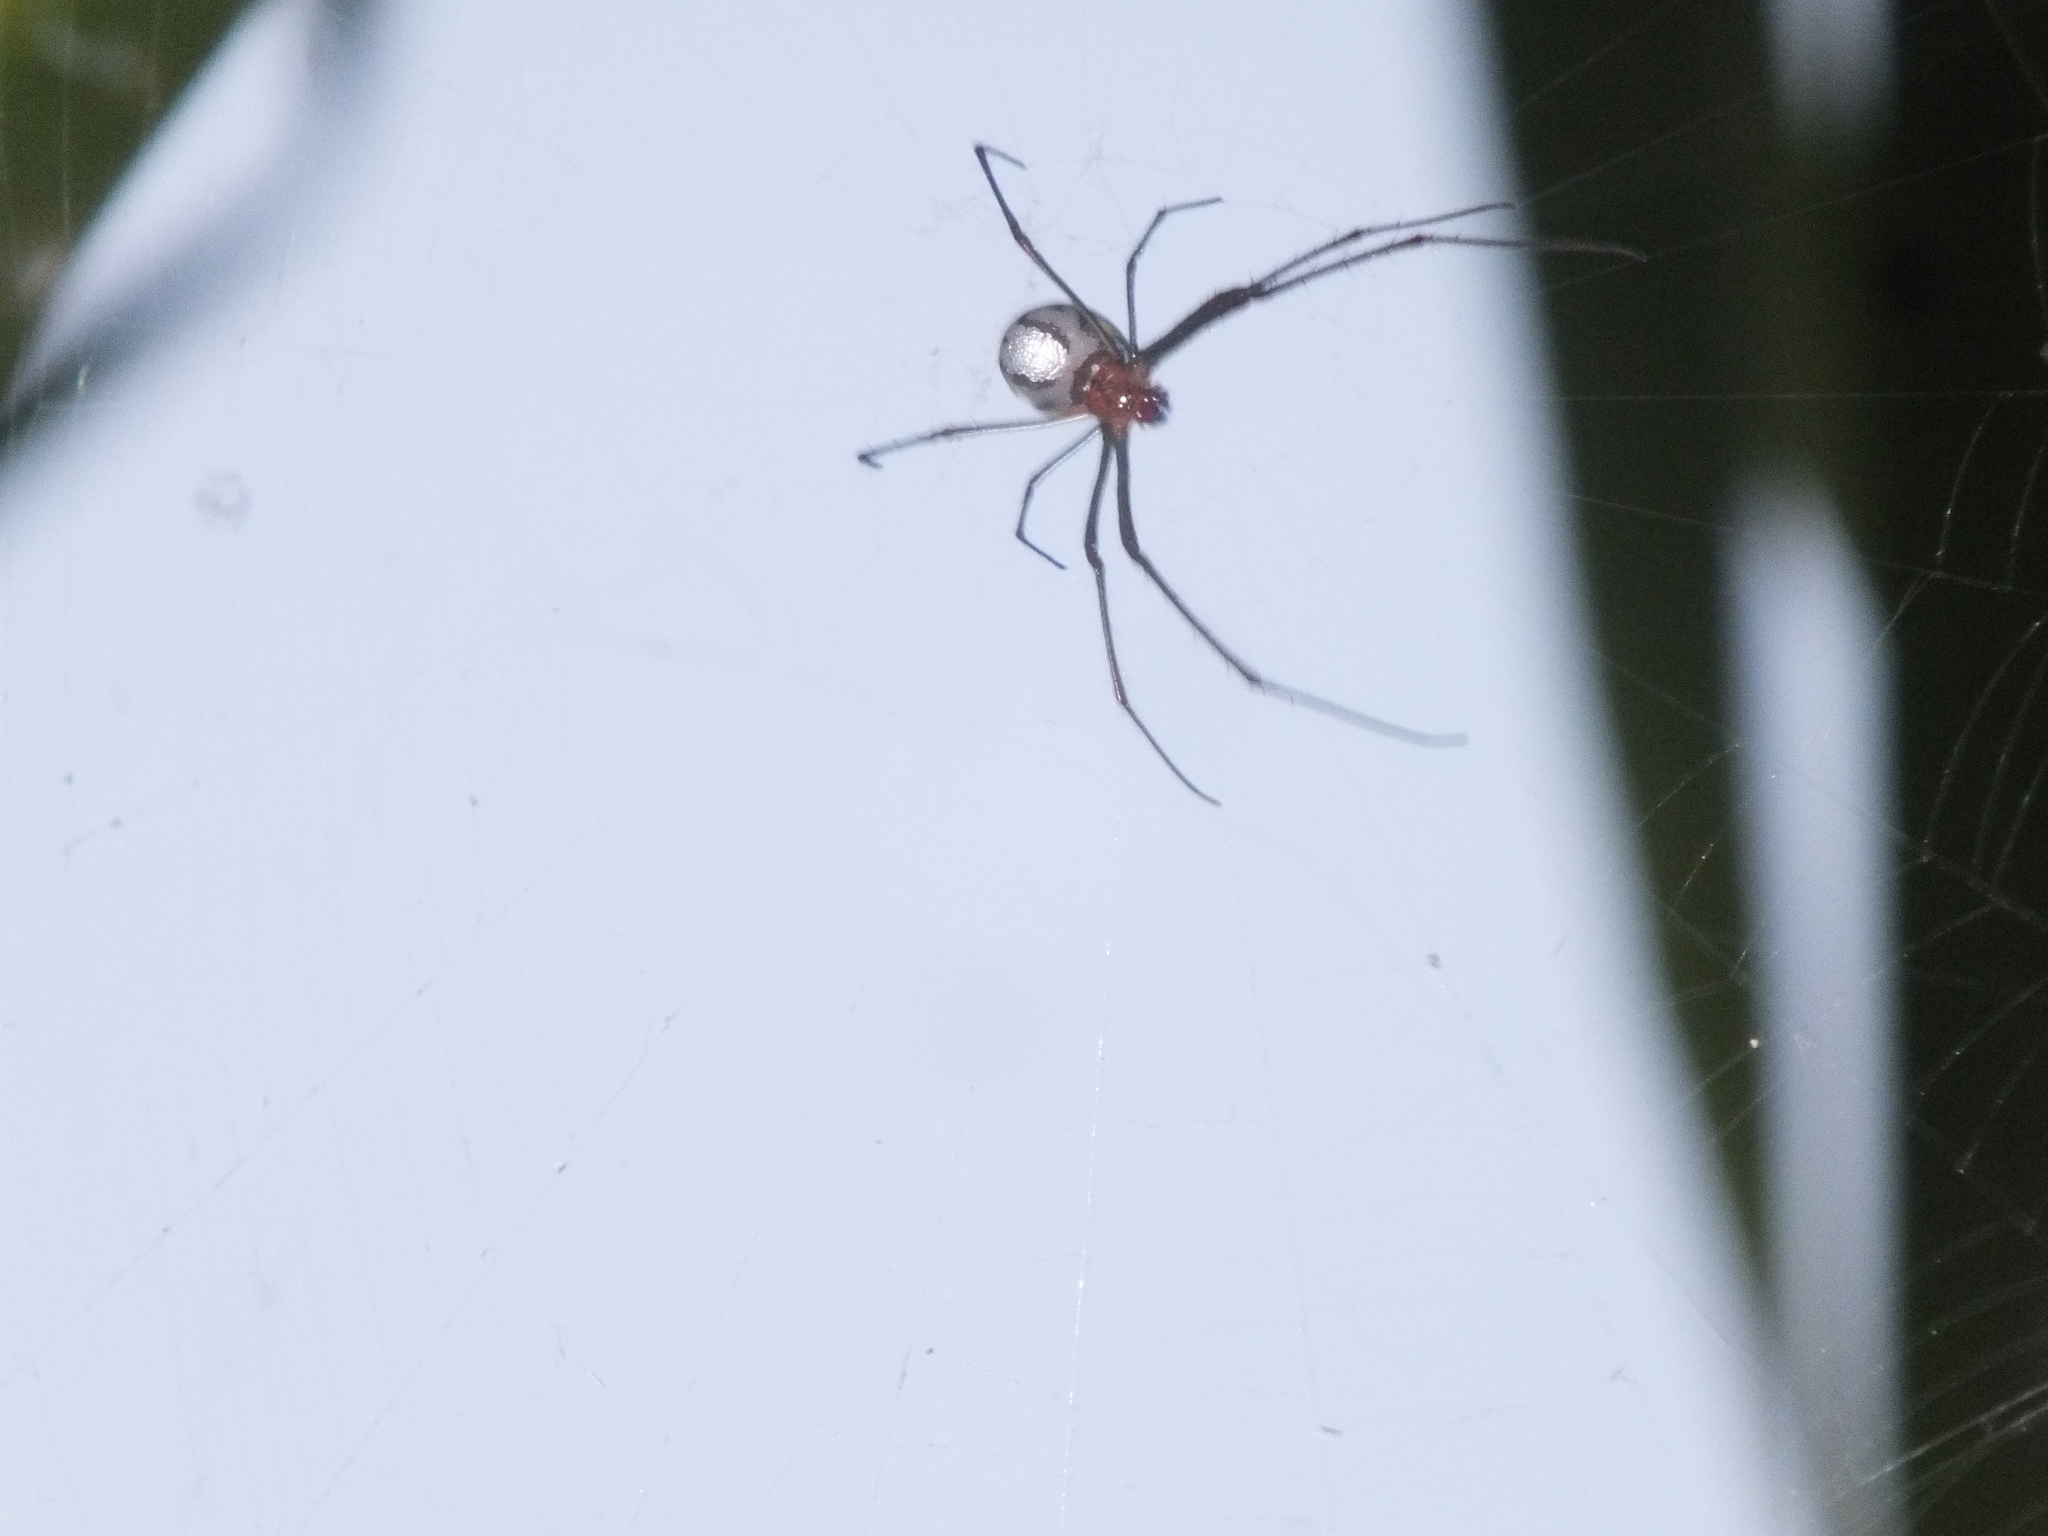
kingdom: Animalia
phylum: Arthropoda
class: Arachnida
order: Araneae
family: Tetragnathidae
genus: Leucauge
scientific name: Leucauge argyra
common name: Longjawed orb weavers
